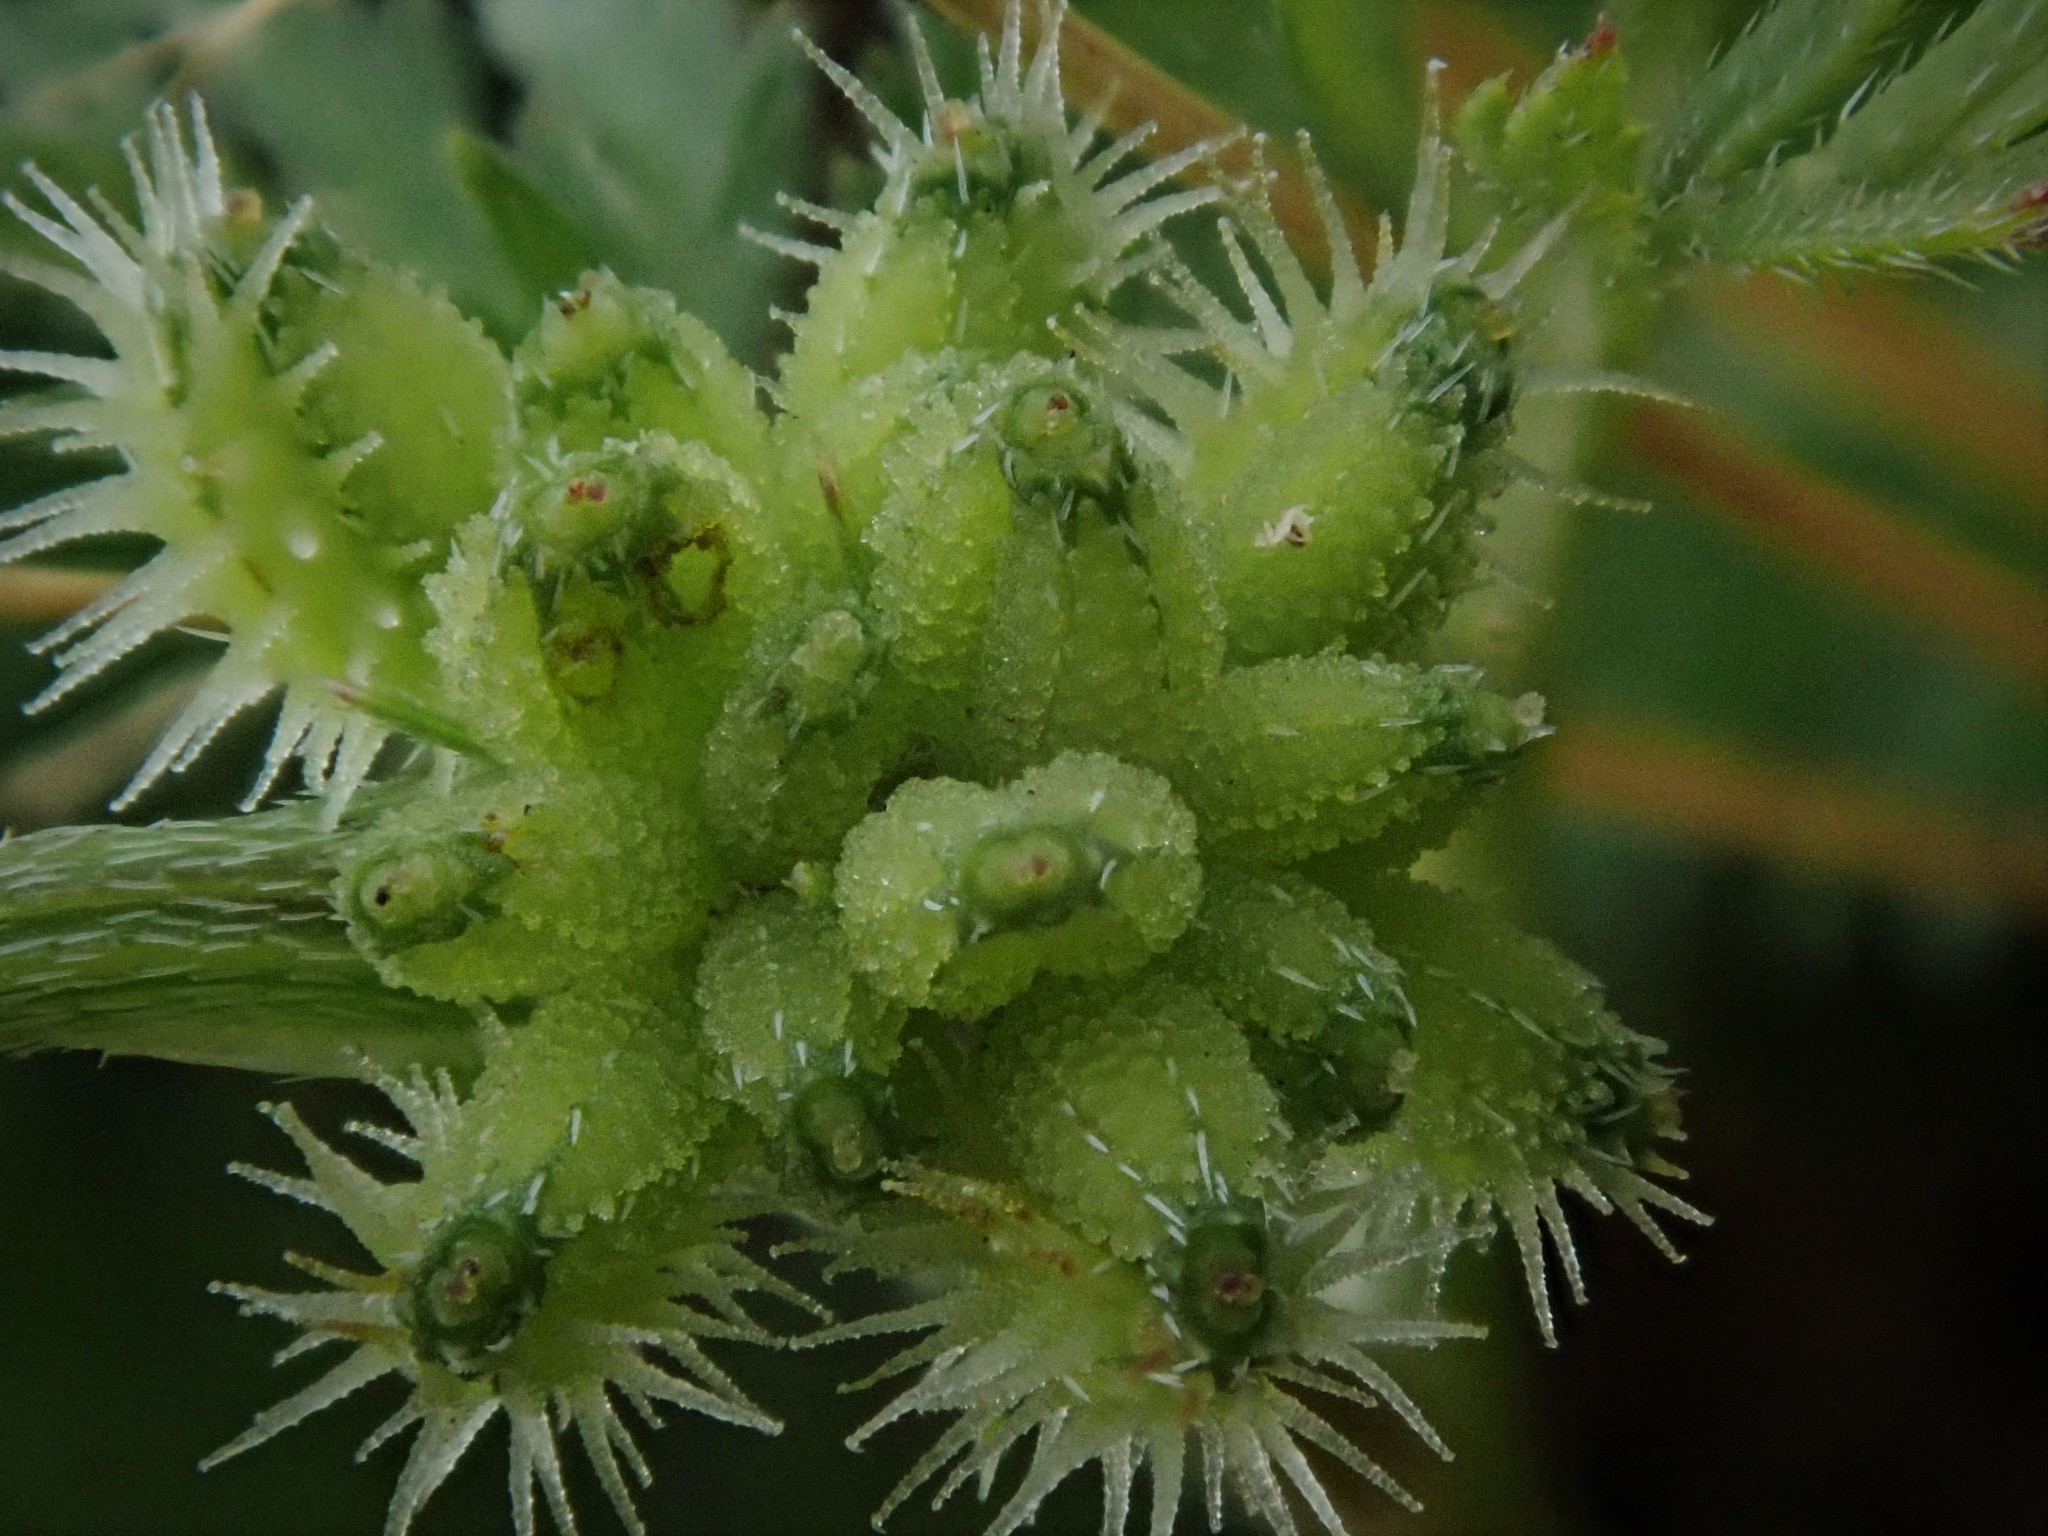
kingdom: Plantae
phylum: Tracheophyta
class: Magnoliopsida
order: Apiales
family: Apiaceae
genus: Torilis
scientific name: Torilis nodosa
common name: Knotted hedge-parsley
